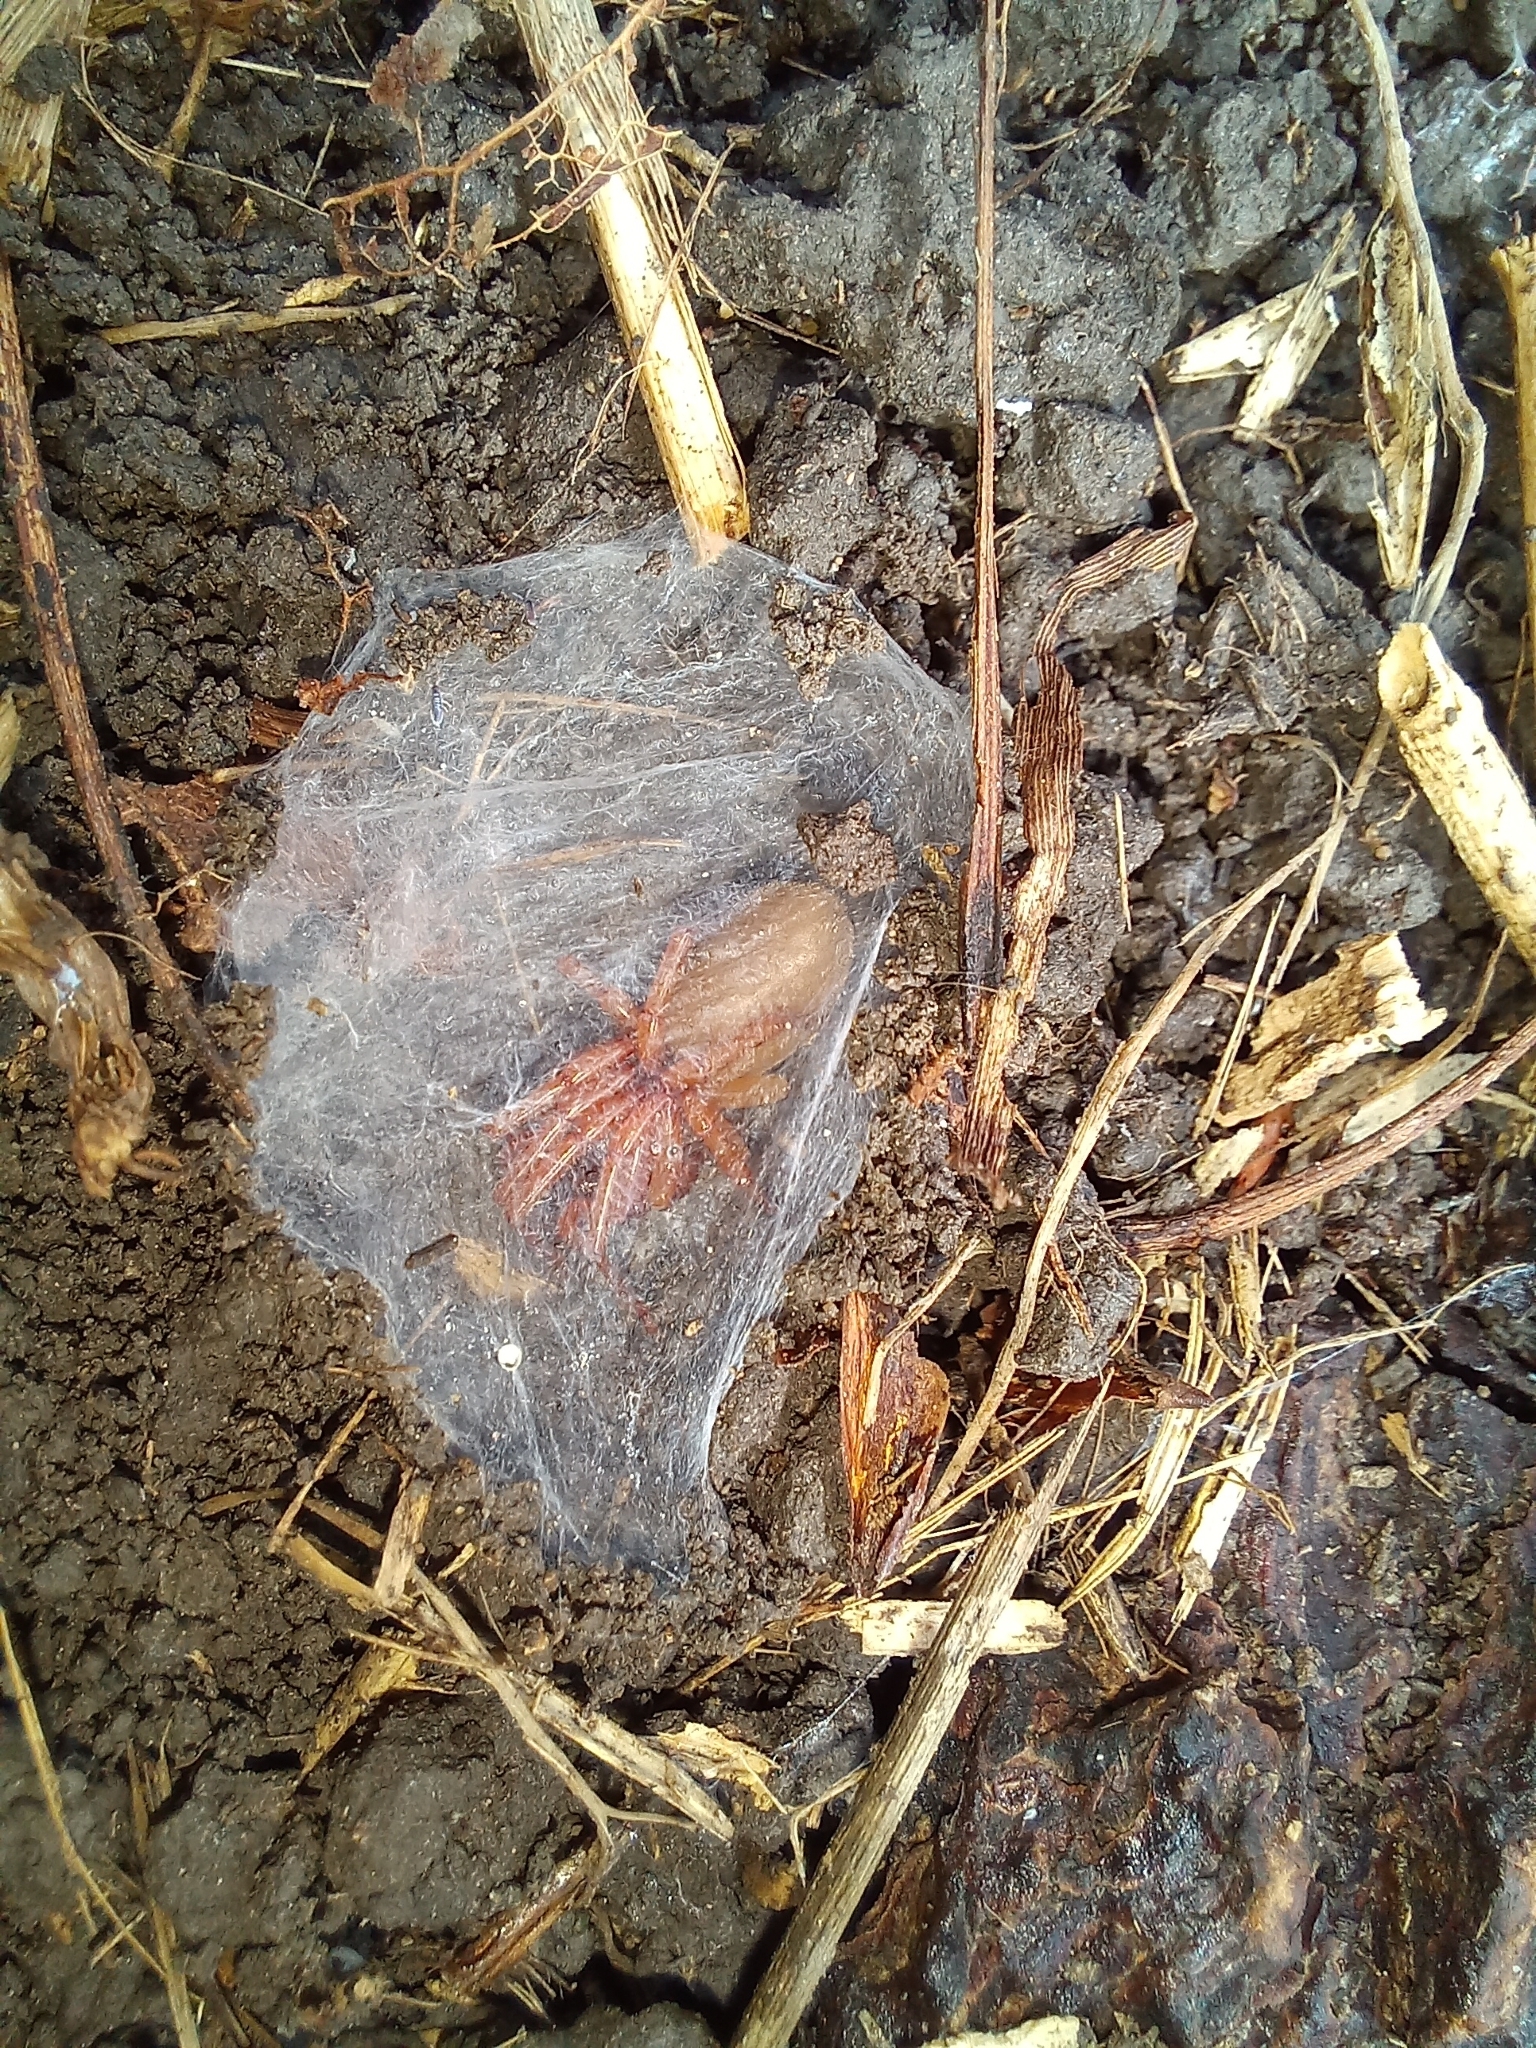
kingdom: Animalia
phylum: Arthropoda
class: Arachnida
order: Araneae
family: Dysderidae
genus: Dysdera
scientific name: Dysdera crocata
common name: Woodlouse spider
